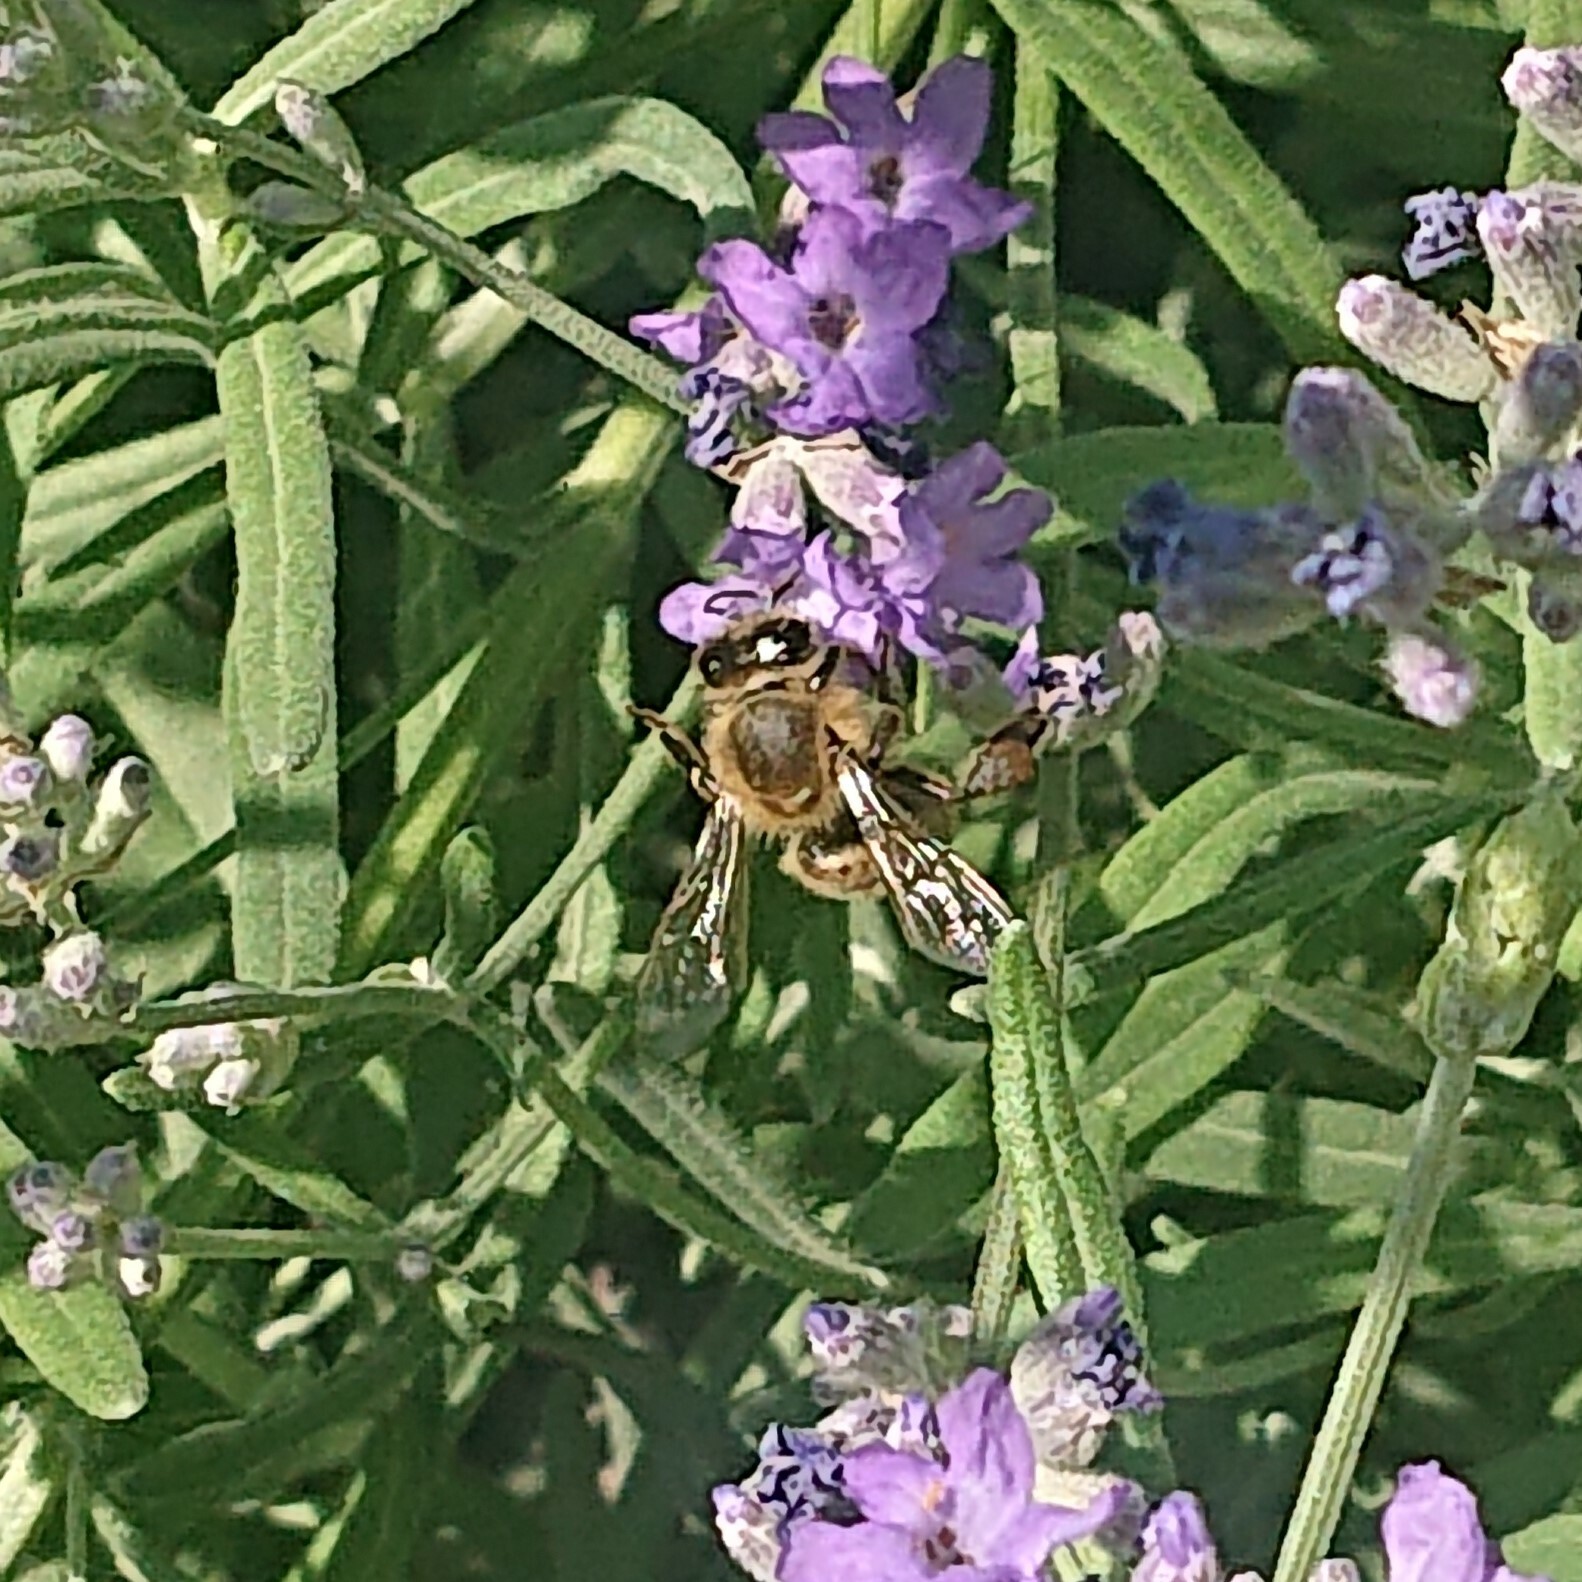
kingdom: Animalia
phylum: Arthropoda
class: Insecta
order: Hymenoptera
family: Apidae
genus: Apis
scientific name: Apis mellifera
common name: Honey bee
